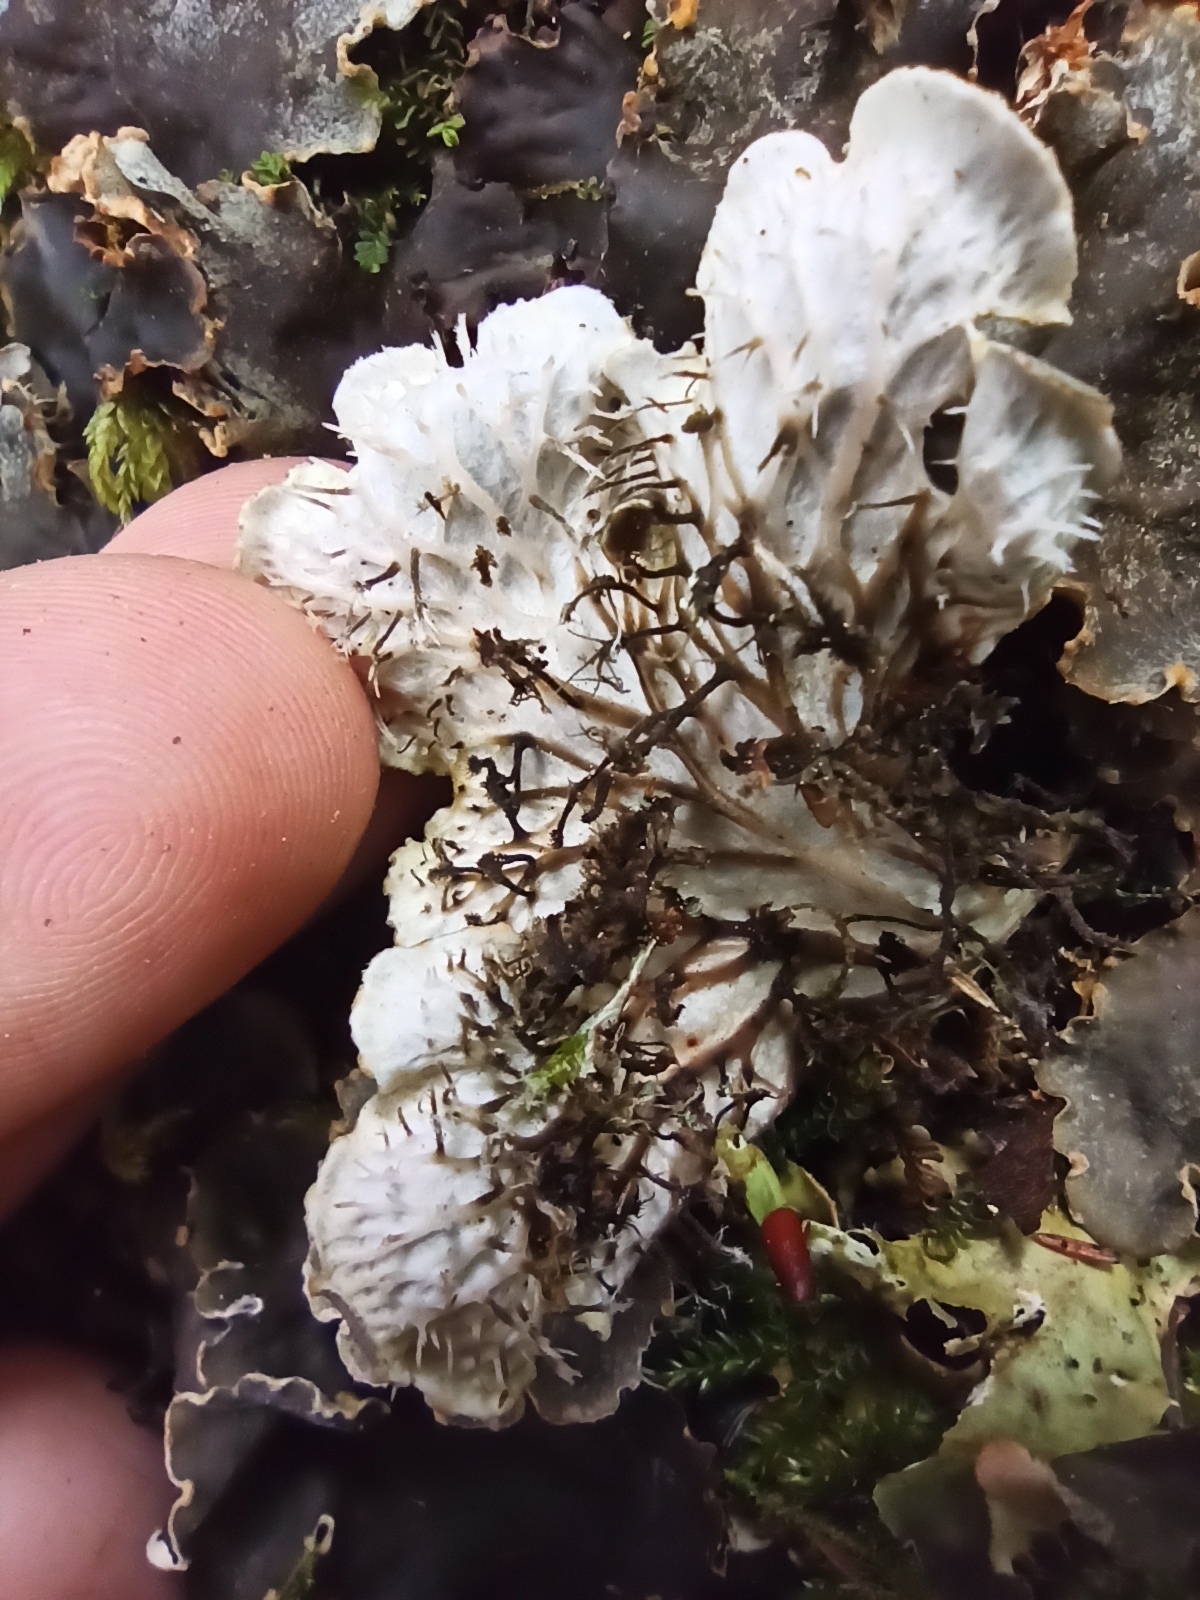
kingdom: Fungi
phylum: Ascomycota
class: Lecanoromycetes
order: Peltigerales
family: Peltigeraceae
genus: Peltigera
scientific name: Peltigera praetextata
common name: Scaly dog-lichen
